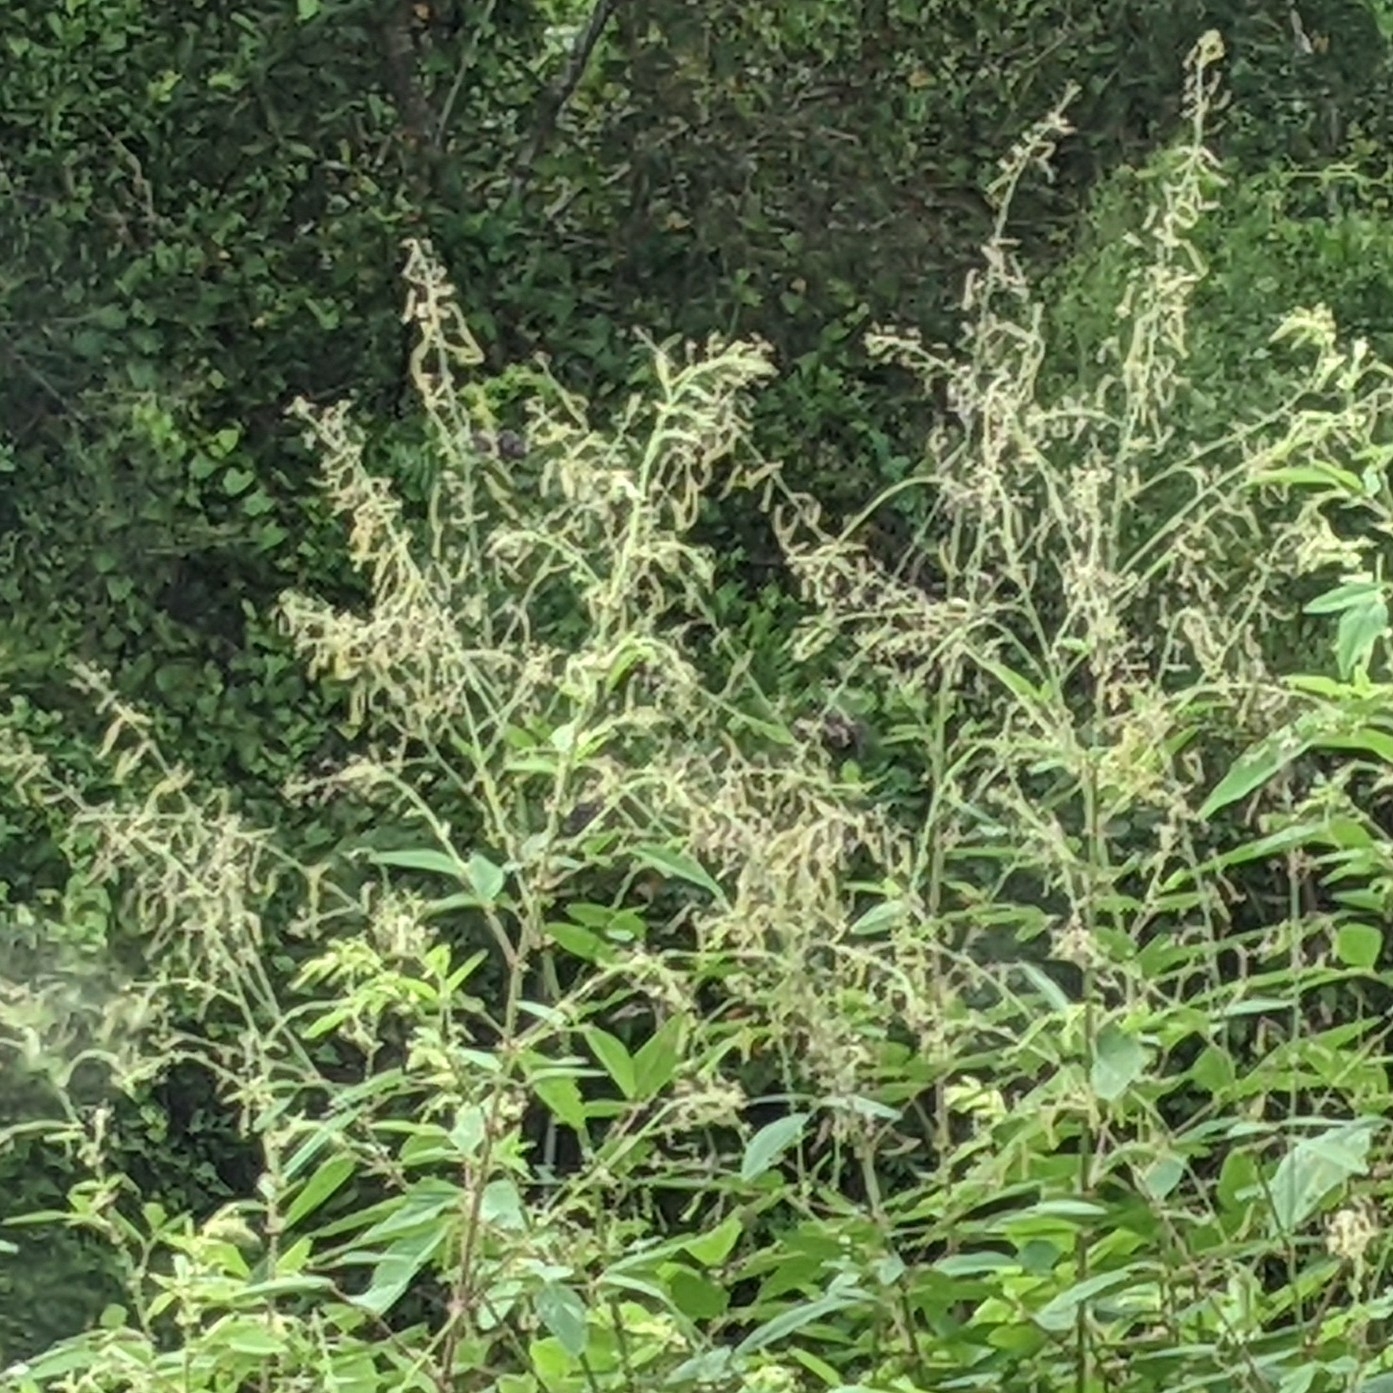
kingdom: Plantae
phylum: Tracheophyta
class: Magnoliopsida
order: Fabales
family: Fabaceae
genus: Desmodium
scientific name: Desmodium tortuosum
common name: Dixie ticktrefoil
